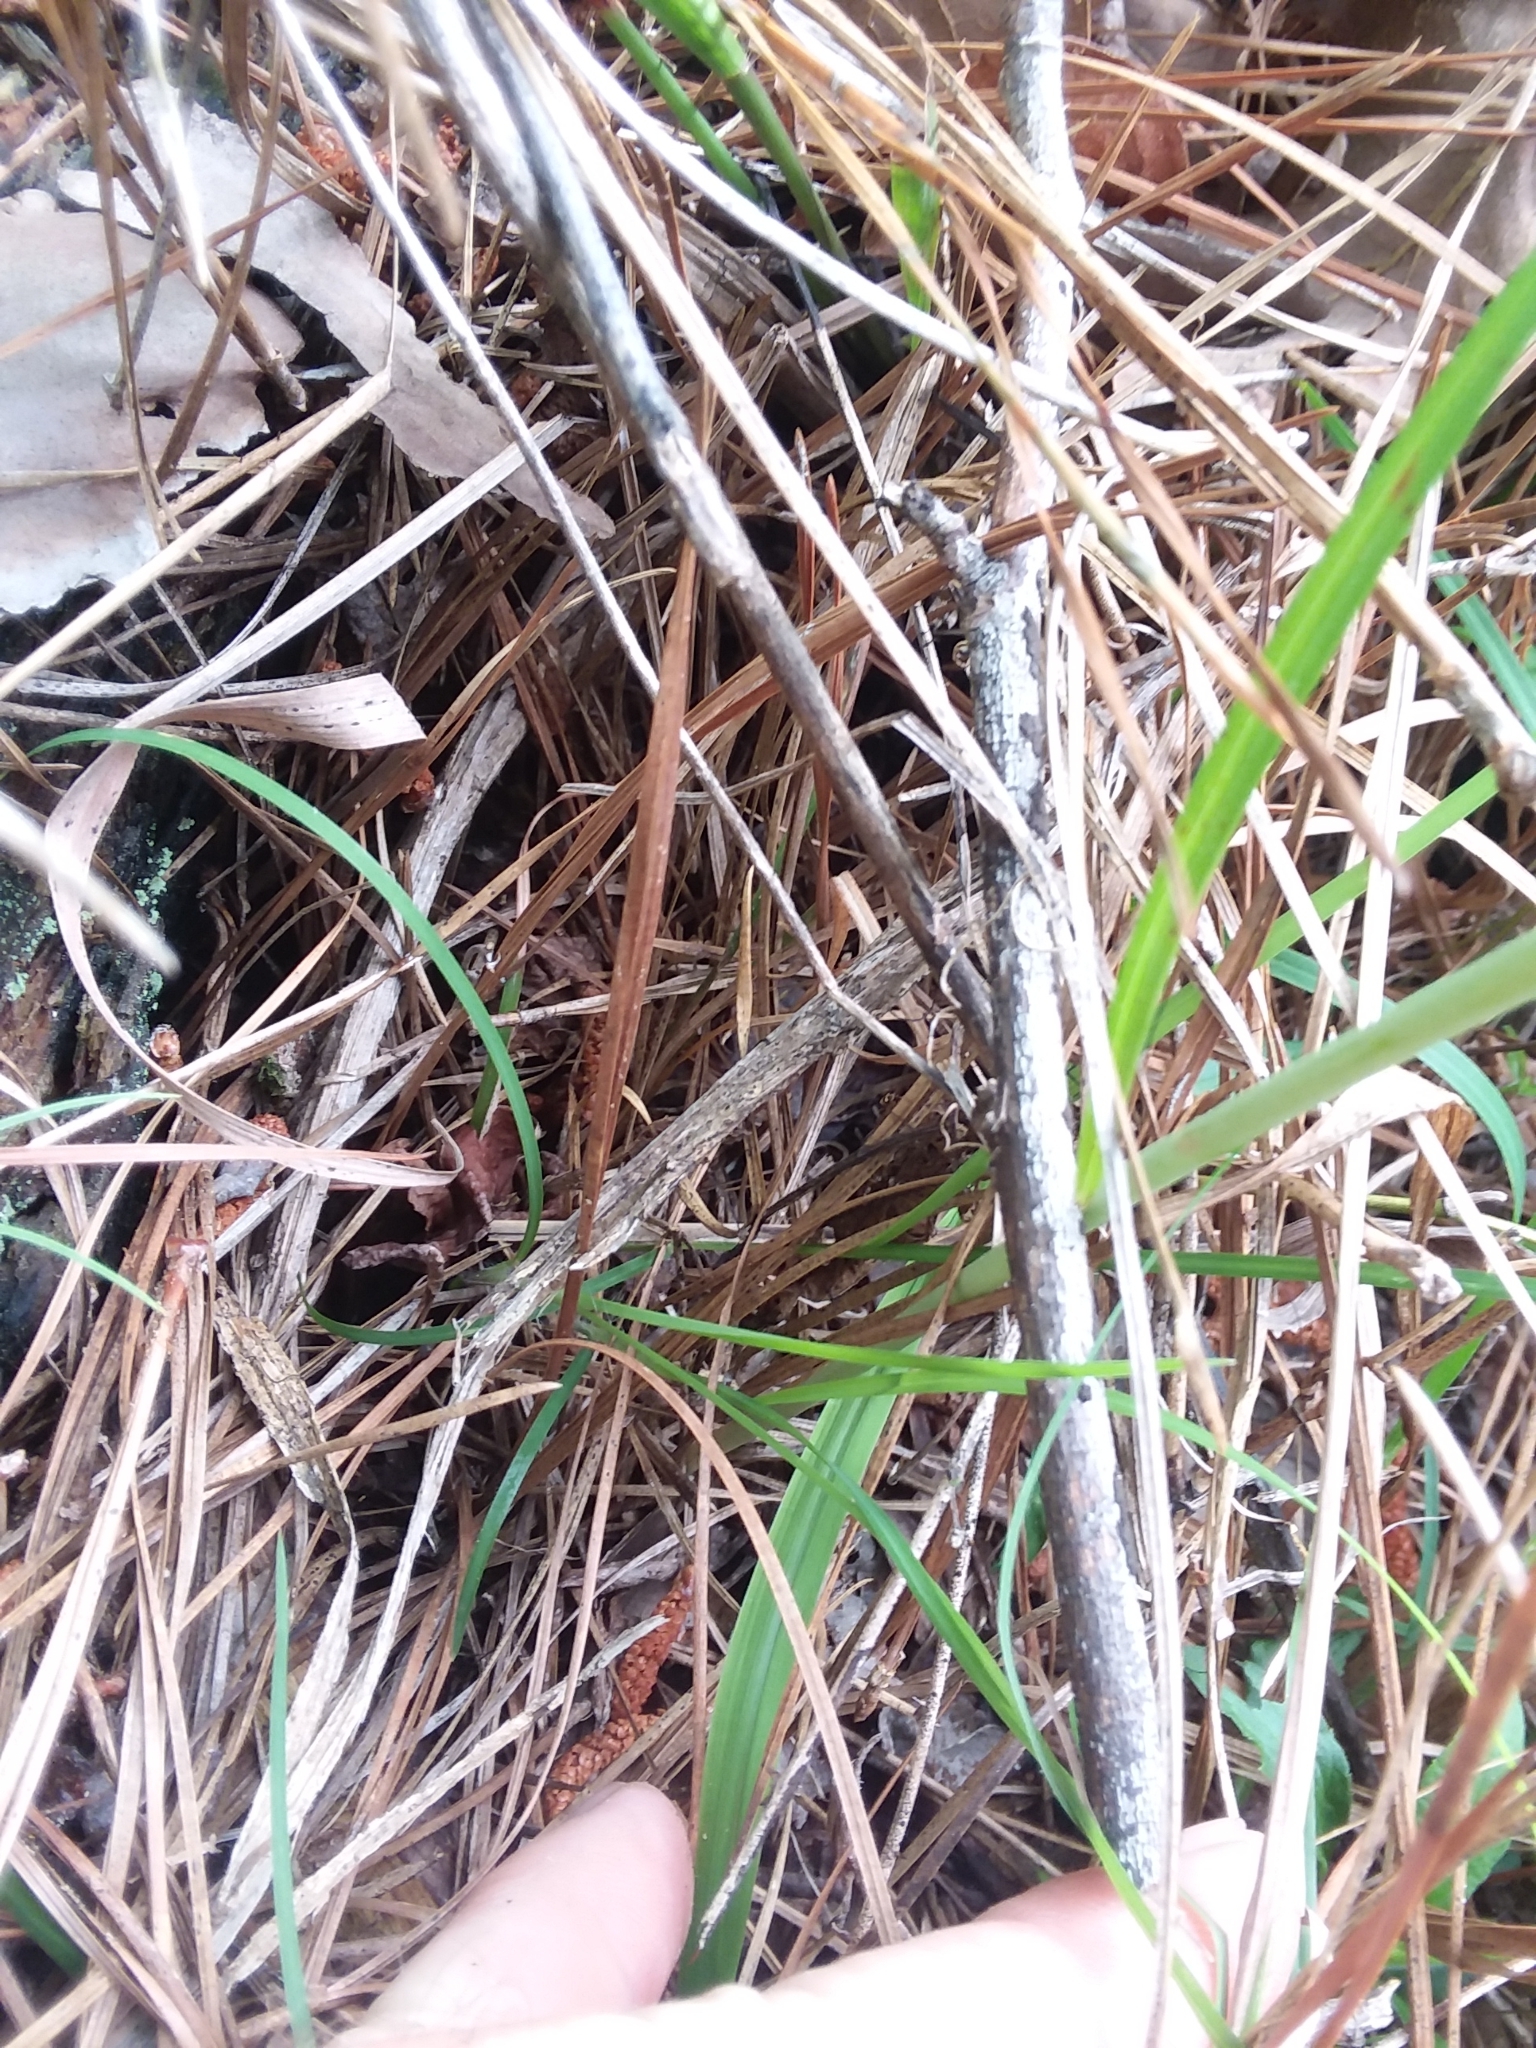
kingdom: Plantae
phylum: Tracheophyta
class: Liliopsida
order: Asparagales
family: Orchidaceae
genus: Spiranthes
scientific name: Spiranthes sylvatica
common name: Woodland lady's tresses
